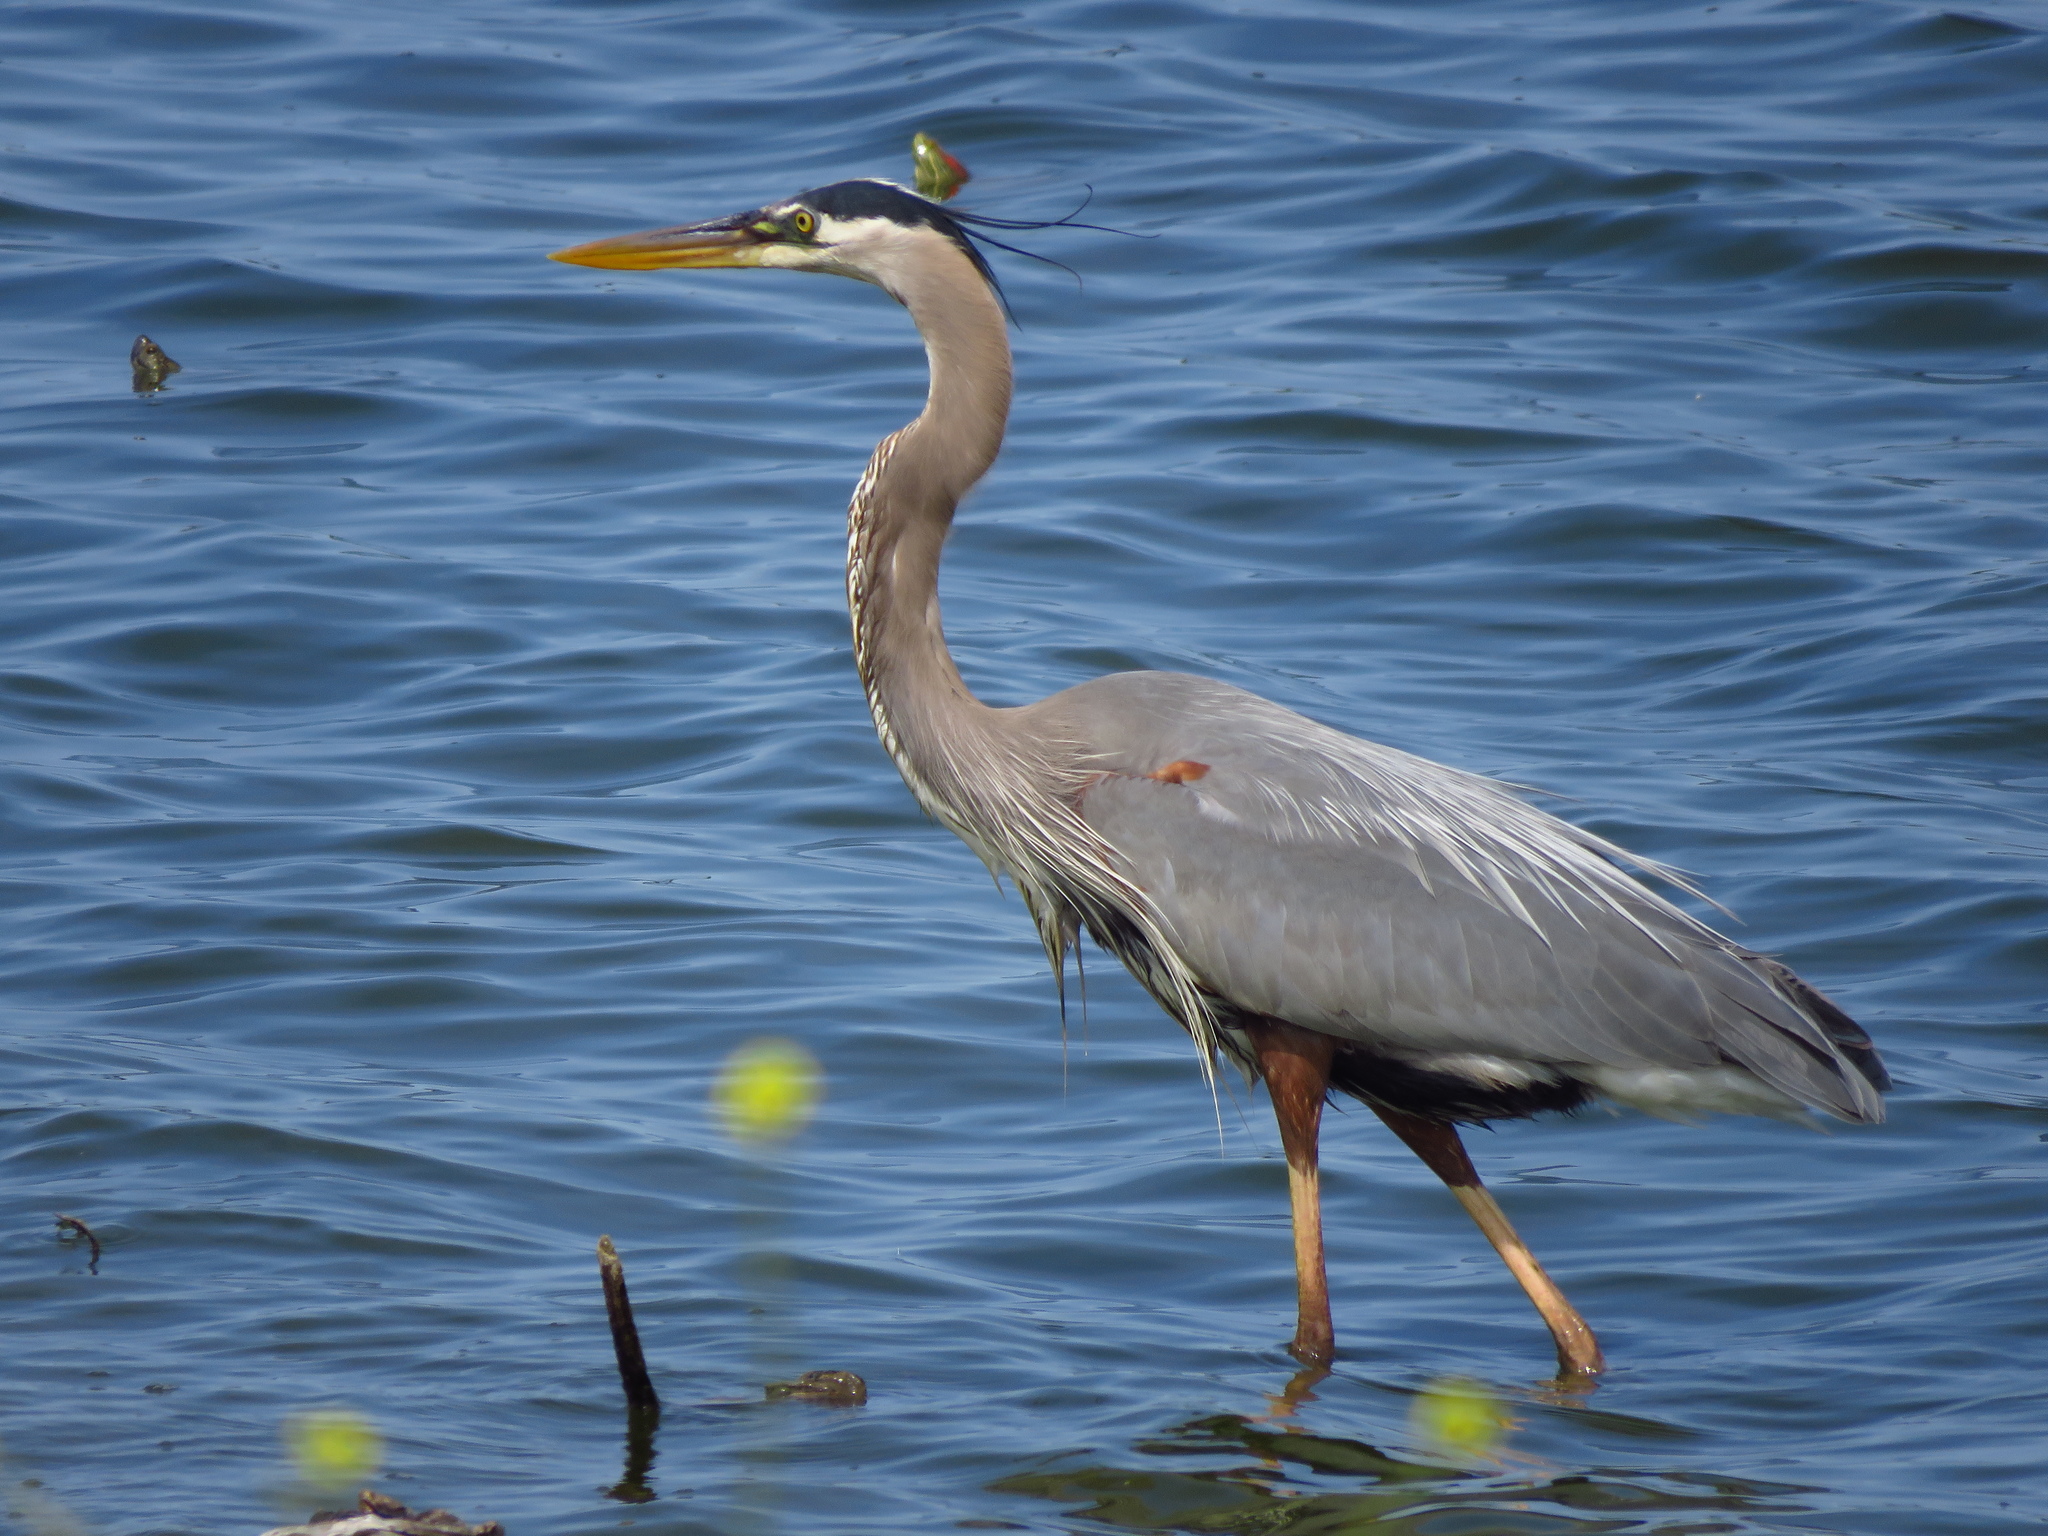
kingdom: Animalia
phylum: Chordata
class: Aves
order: Pelecaniformes
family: Ardeidae
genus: Ardea
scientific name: Ardea herodias
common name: Great blue heron
